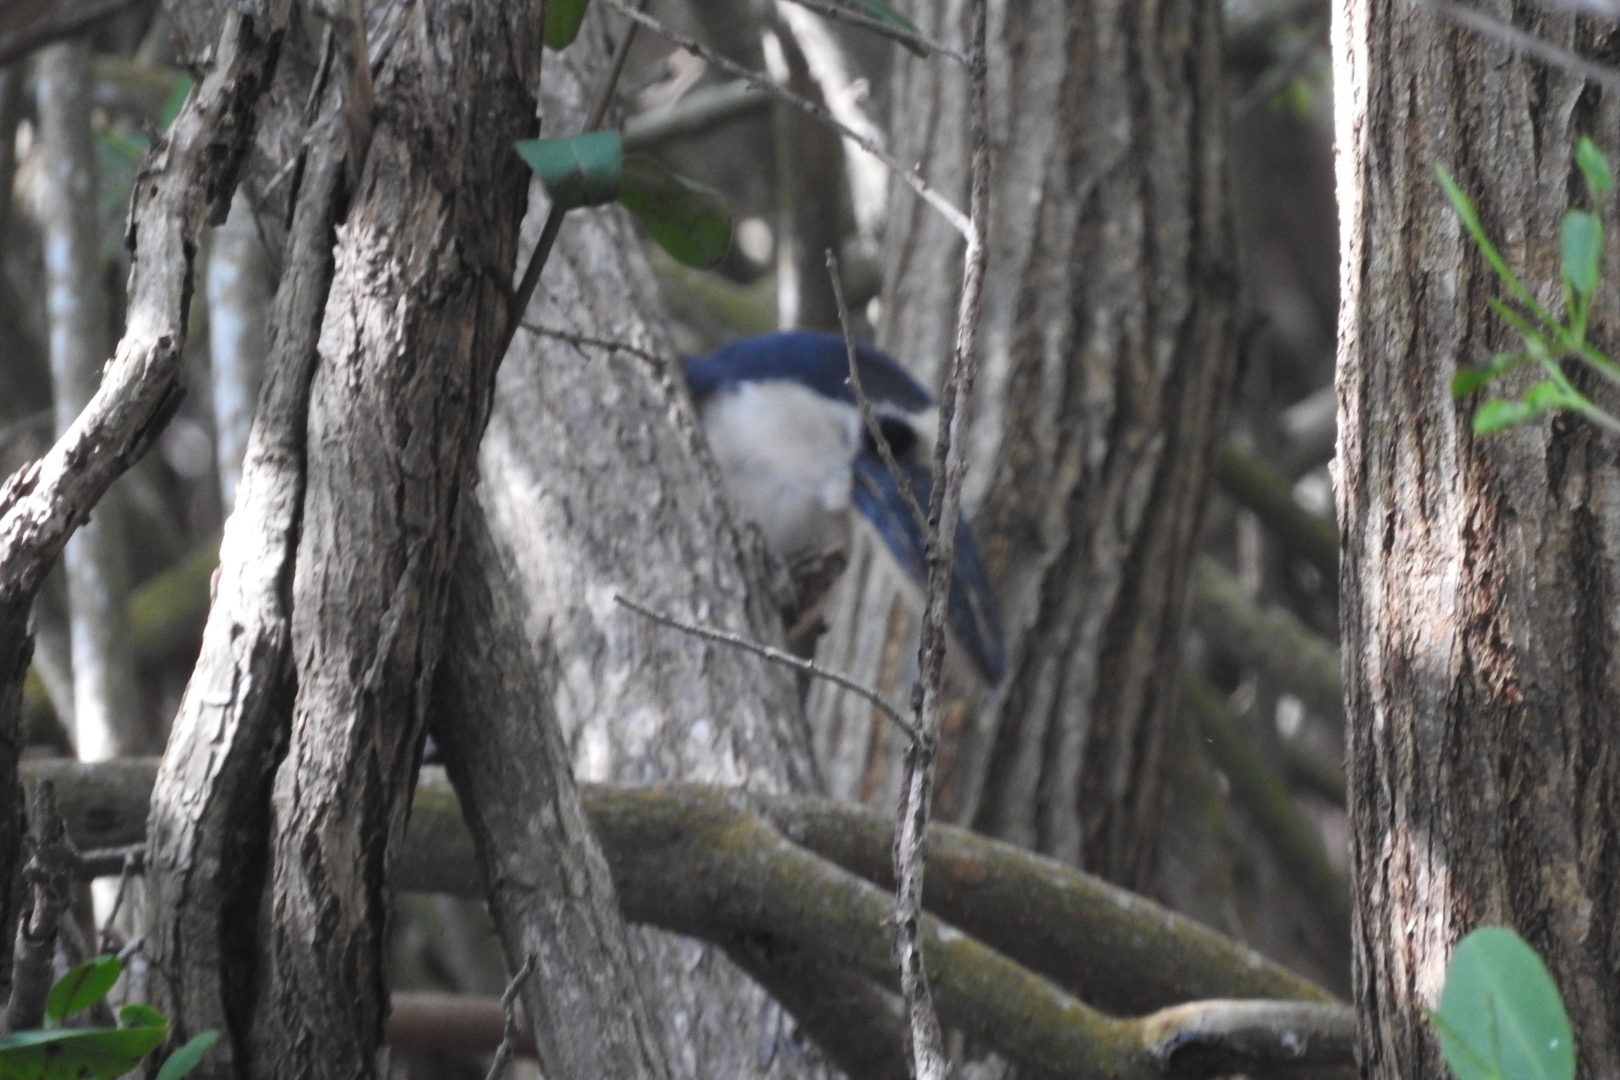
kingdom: Animalia
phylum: Chordata
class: Aves
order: Pelecaniformes
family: Ardeidae
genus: Cochlearius
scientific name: Cochlearius cochlearius
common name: Boat-billed heron
